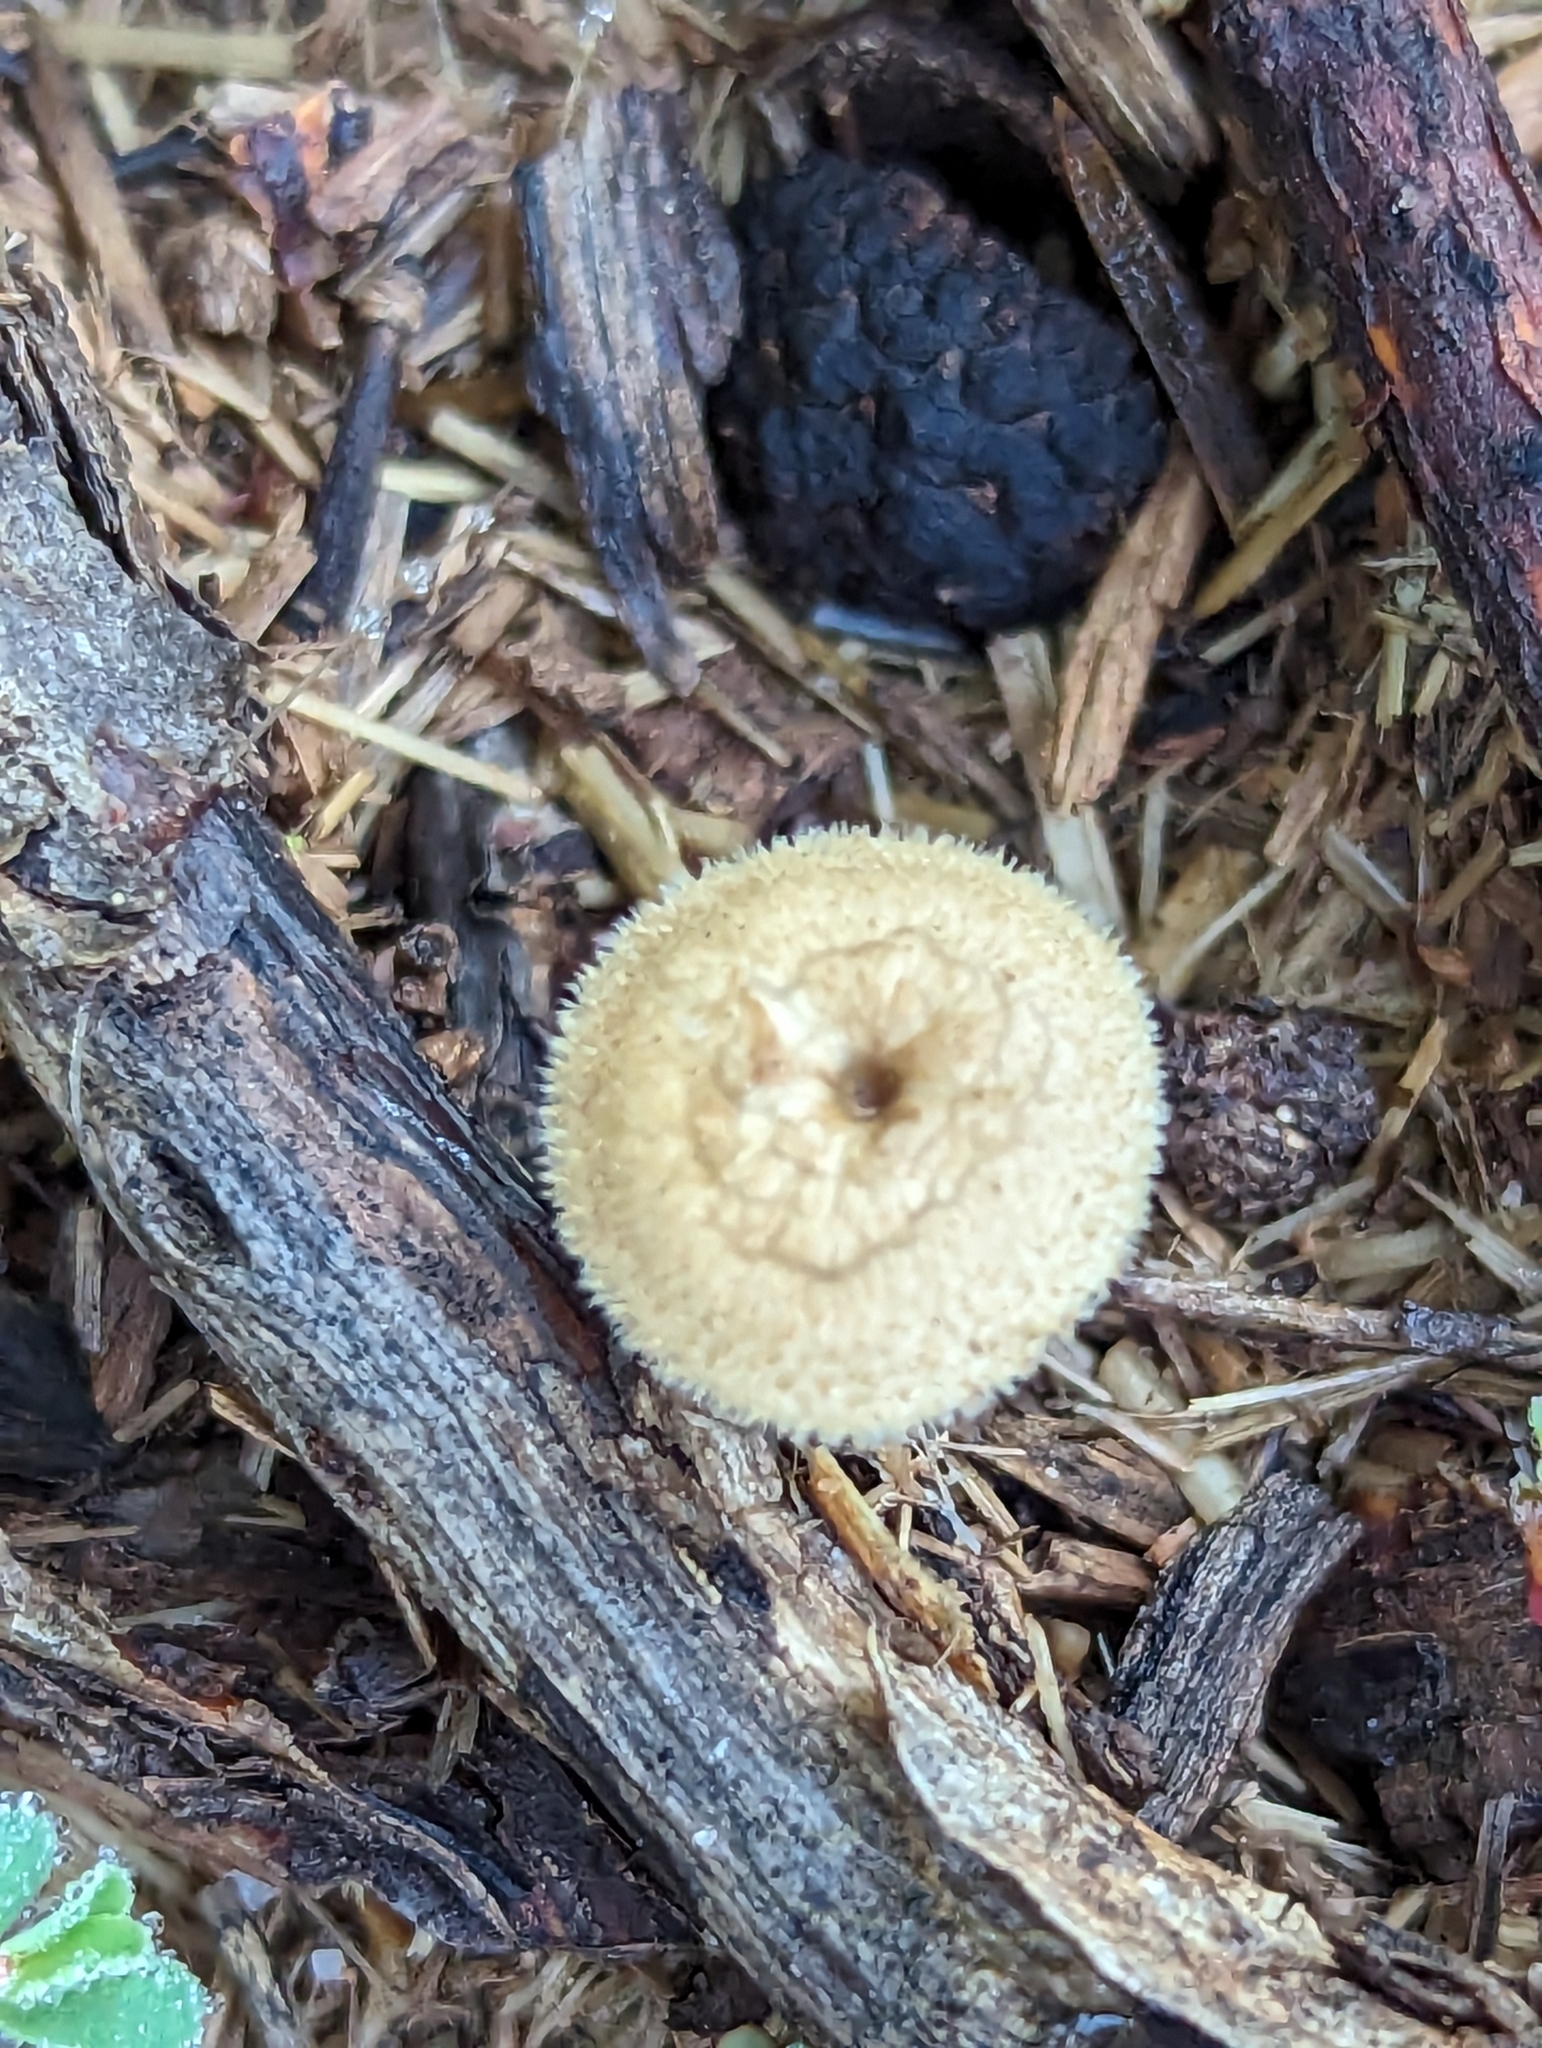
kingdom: Fungi
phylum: Basidiomycota
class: Agaricomycetes
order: Polyporales
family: Polyporaceae
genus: Lentinus
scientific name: Lentinus arcularius
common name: Spring polypore
